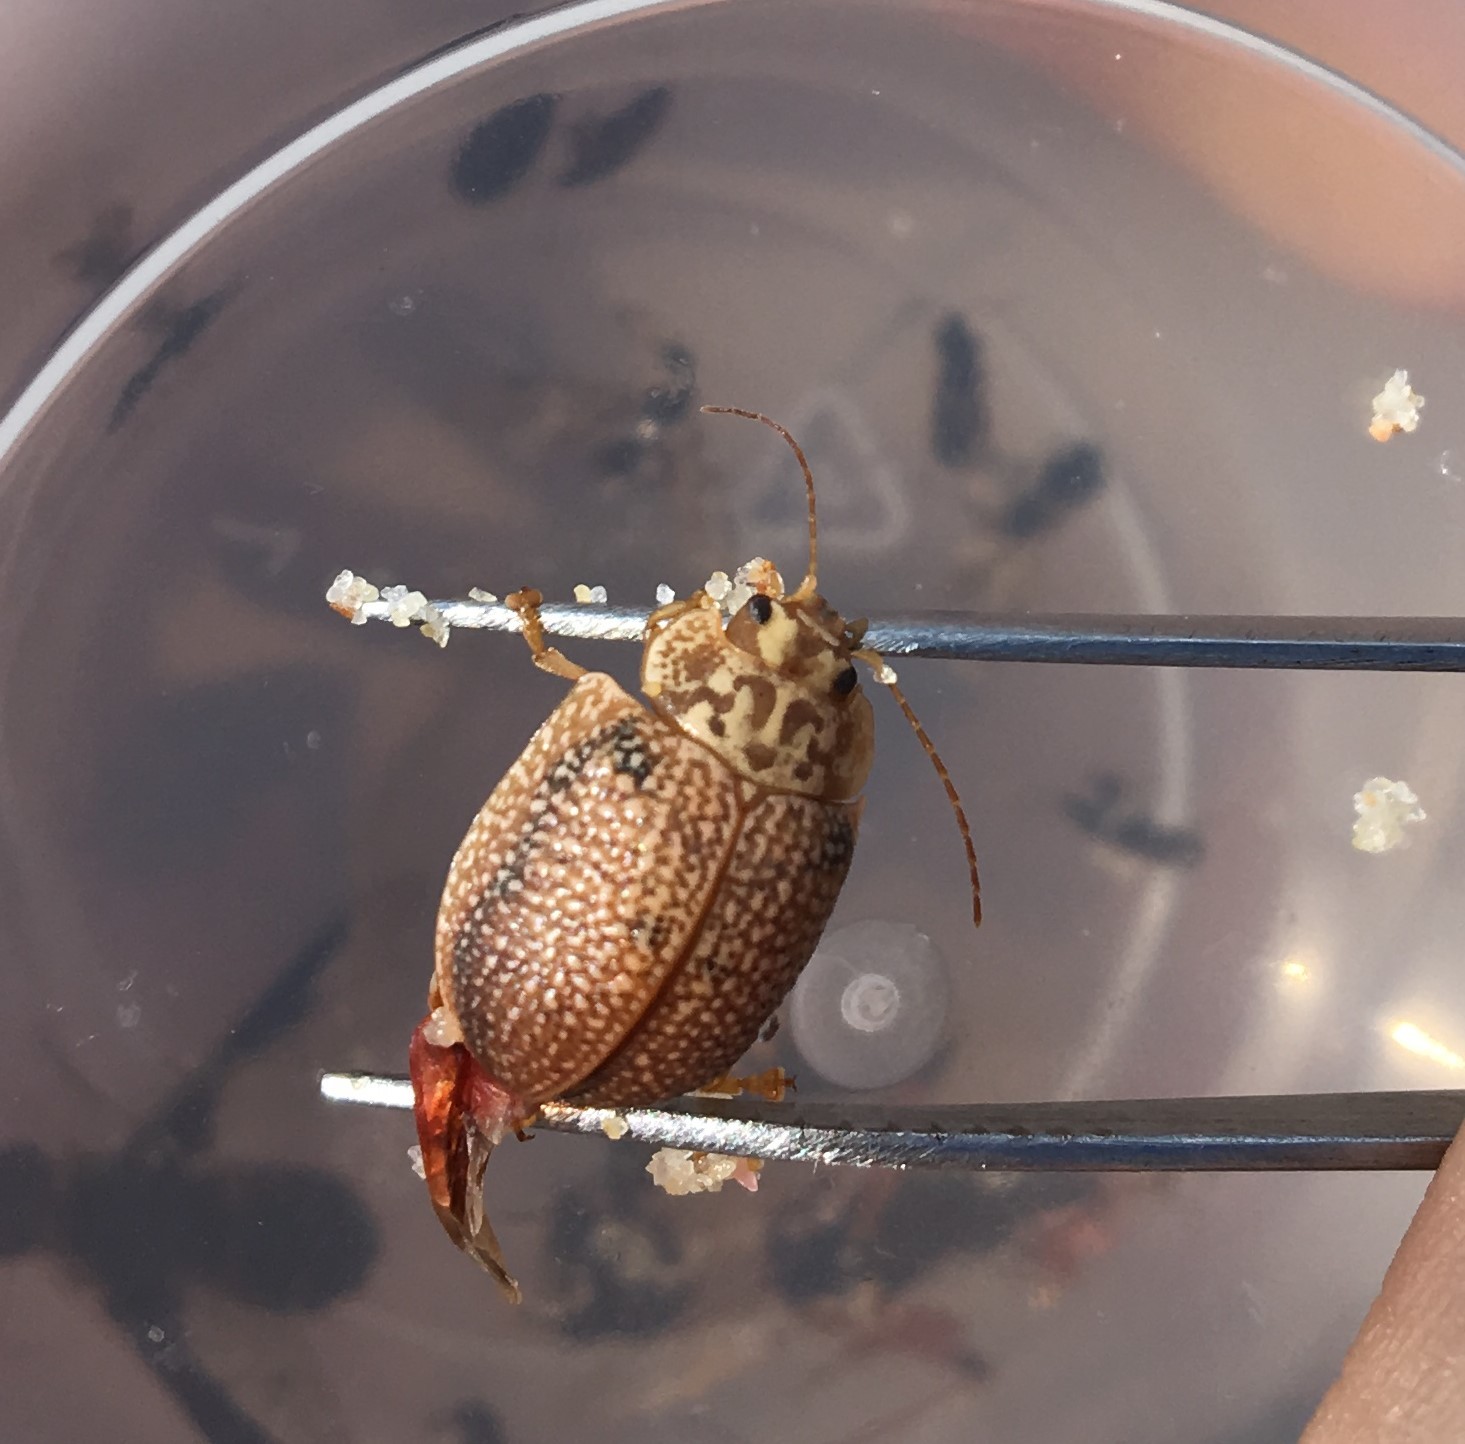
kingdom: Animalia
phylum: Arthropoda
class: Insecta
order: Coleoptera
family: Chrysomelidae
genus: Paropsis
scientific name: Paropsis
